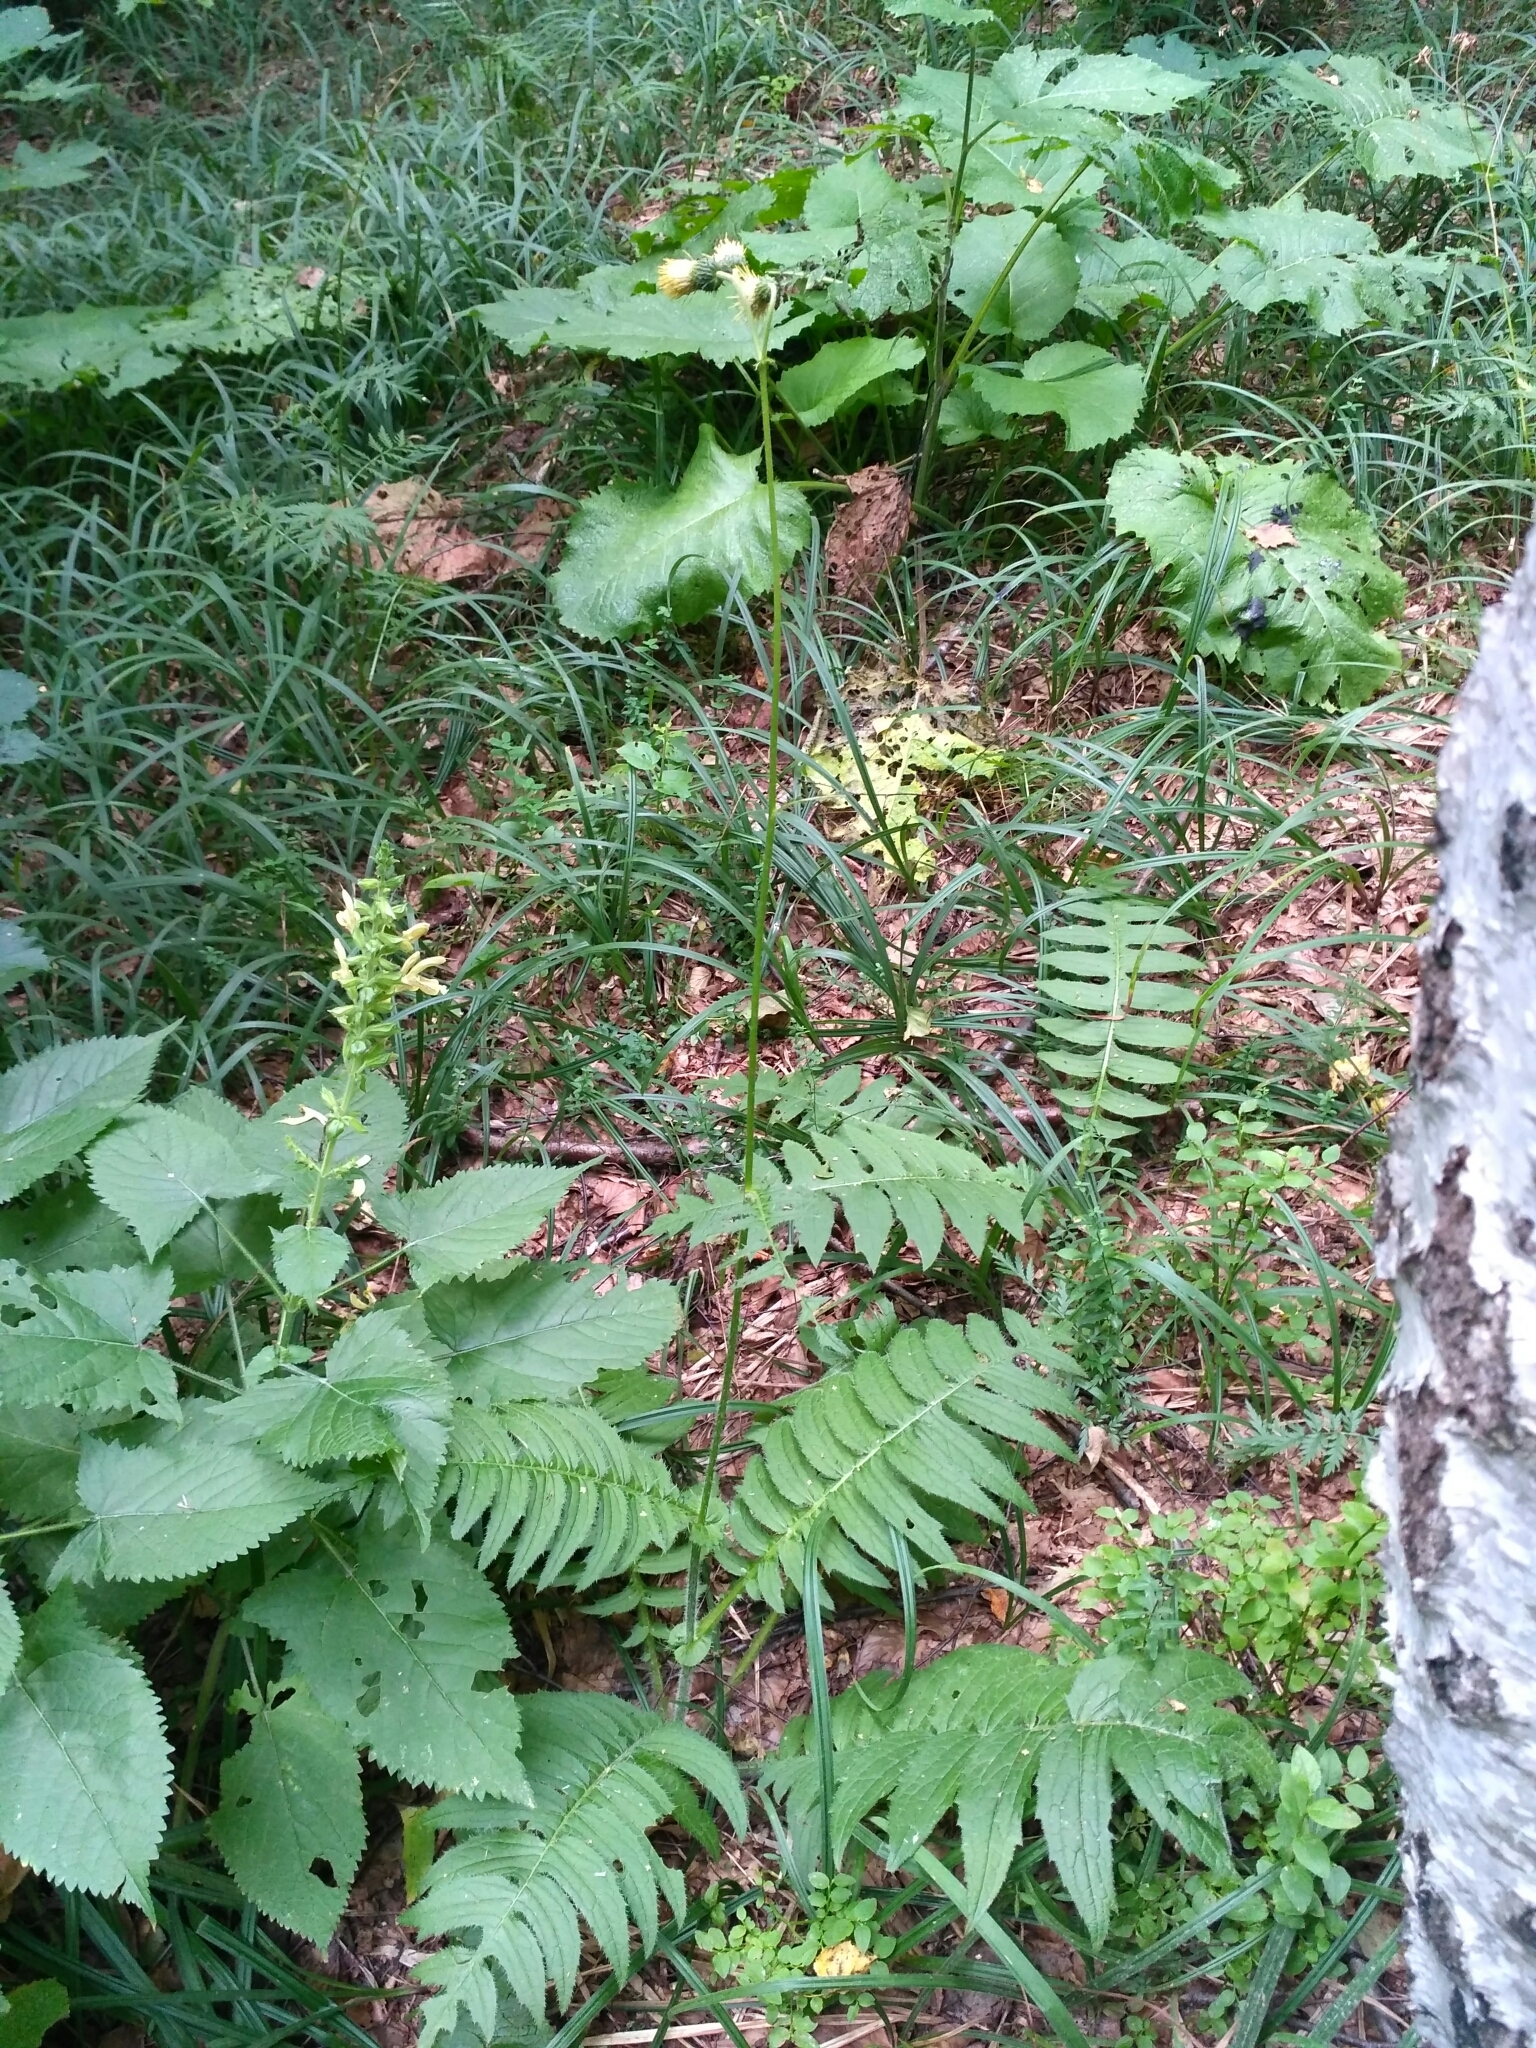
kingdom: Plantae
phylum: Tracheophyta
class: Magnoliopsida
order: Asterales
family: Asteraceae
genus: Cirsium
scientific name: Cirsium erisithales
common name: Yellow thistle
